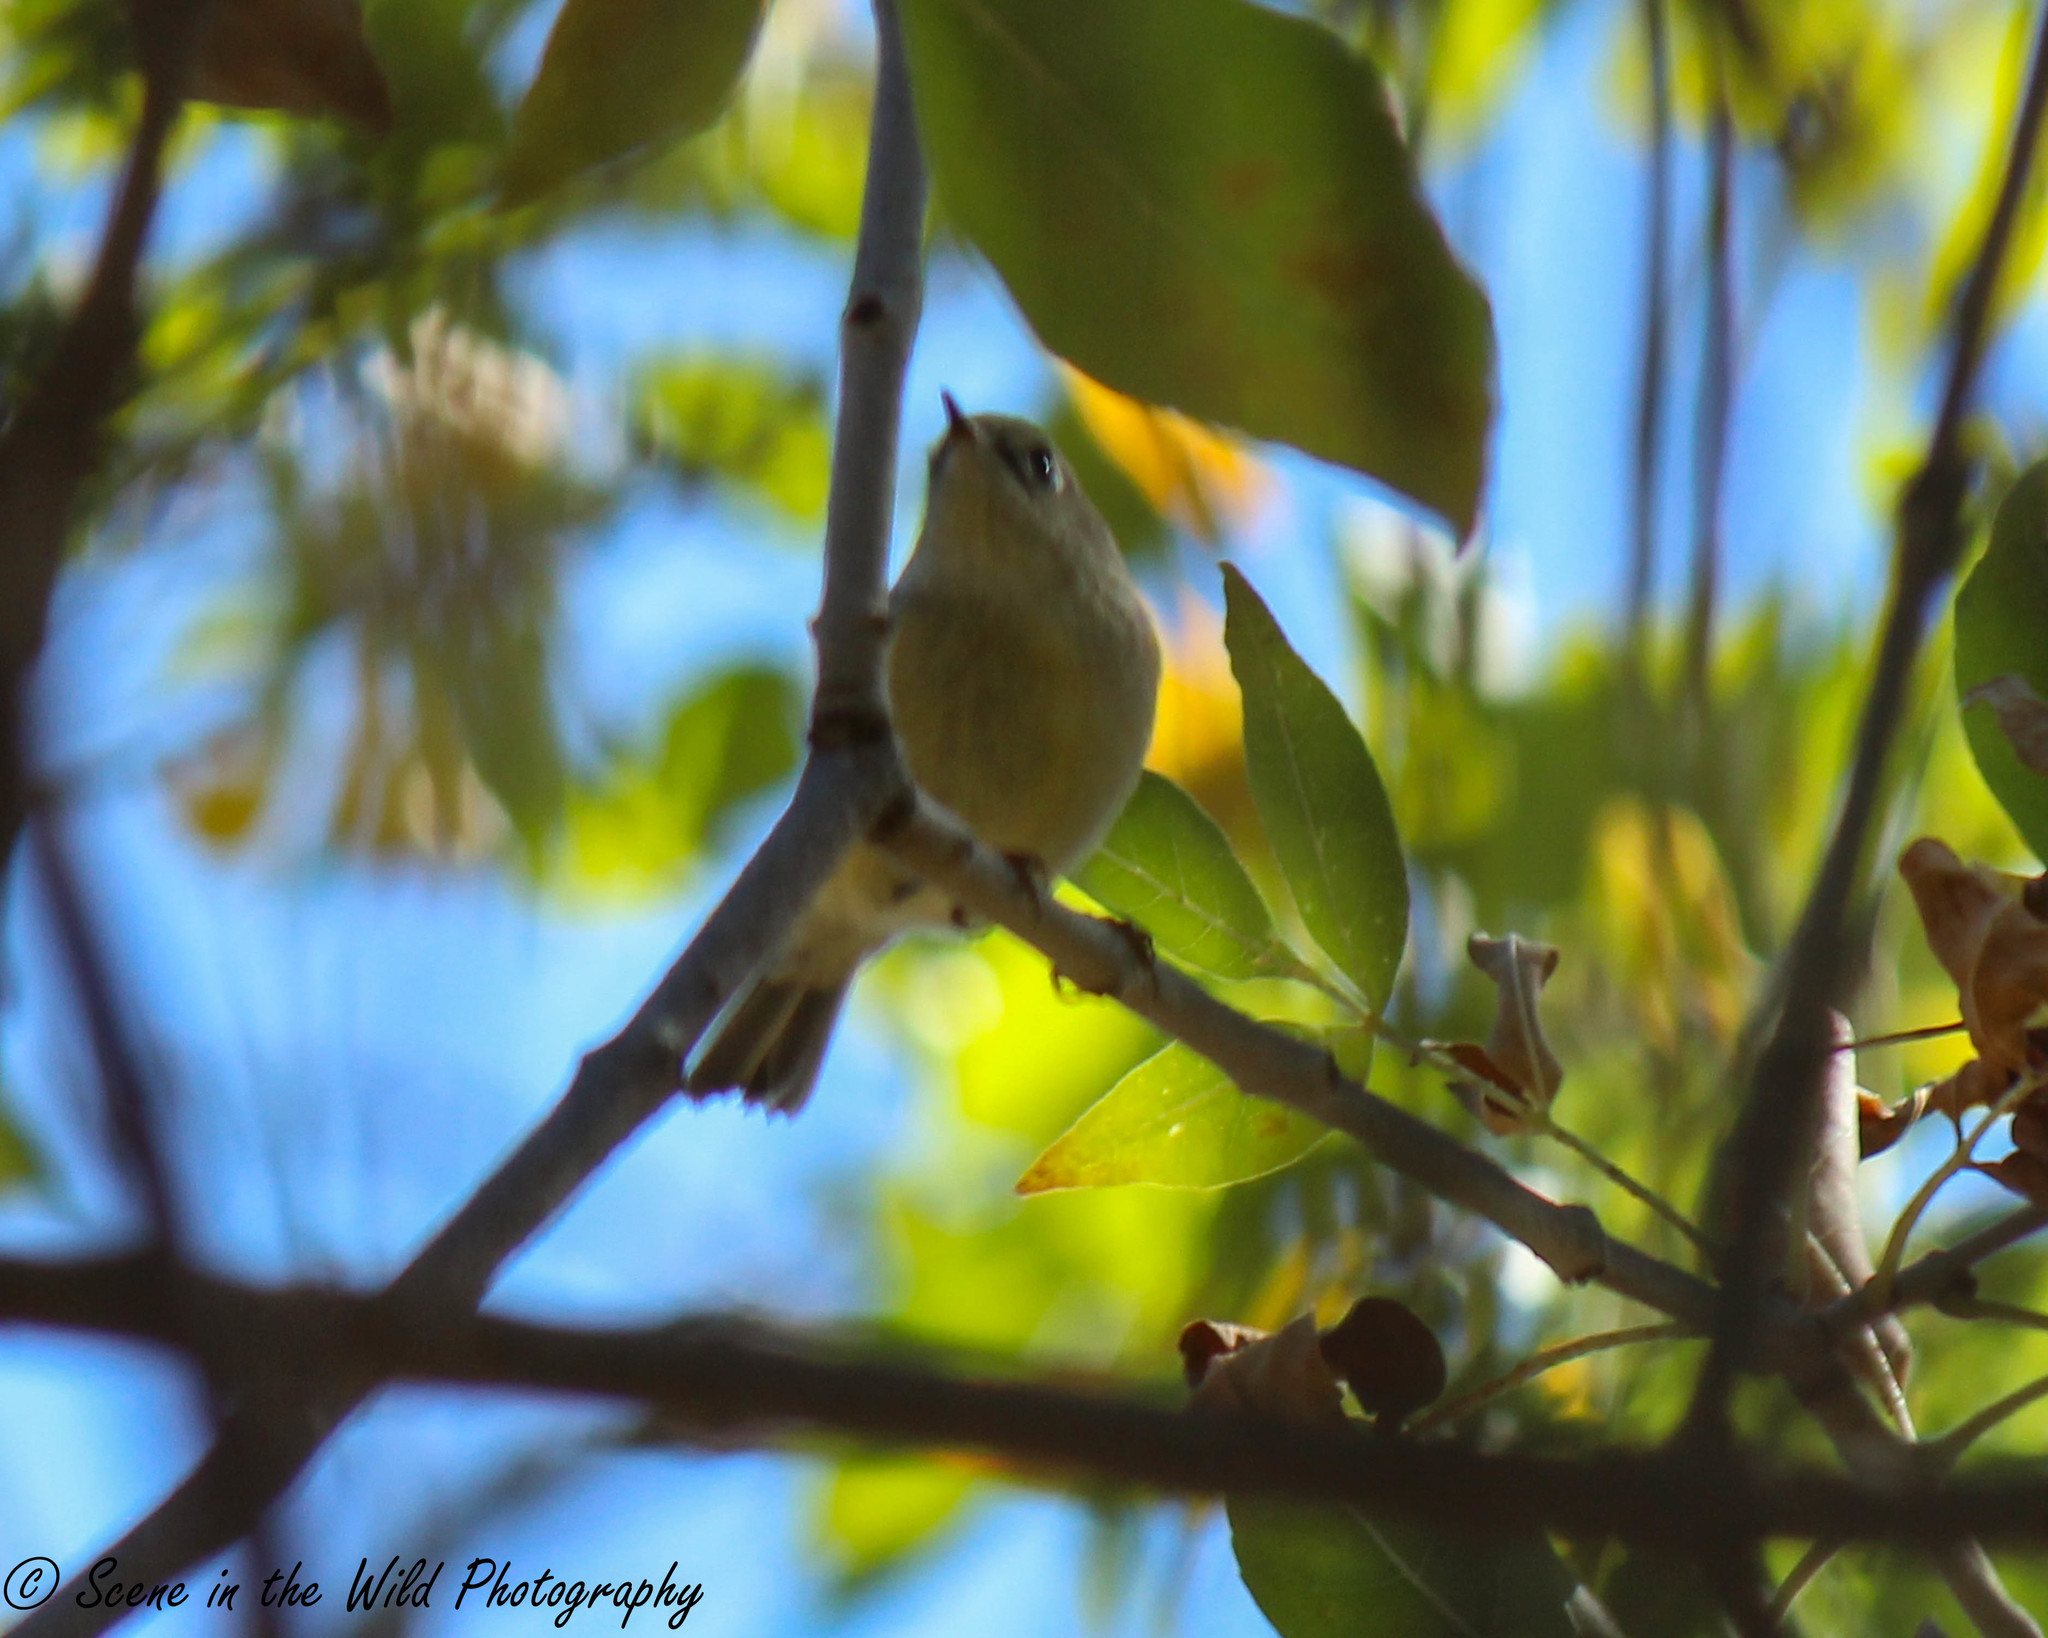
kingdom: Animalia
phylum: Chordata
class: Aves
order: Passeriformes
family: Regulidae
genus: Regulus
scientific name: Regulus calendula
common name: Ruby-crowned kinglet
